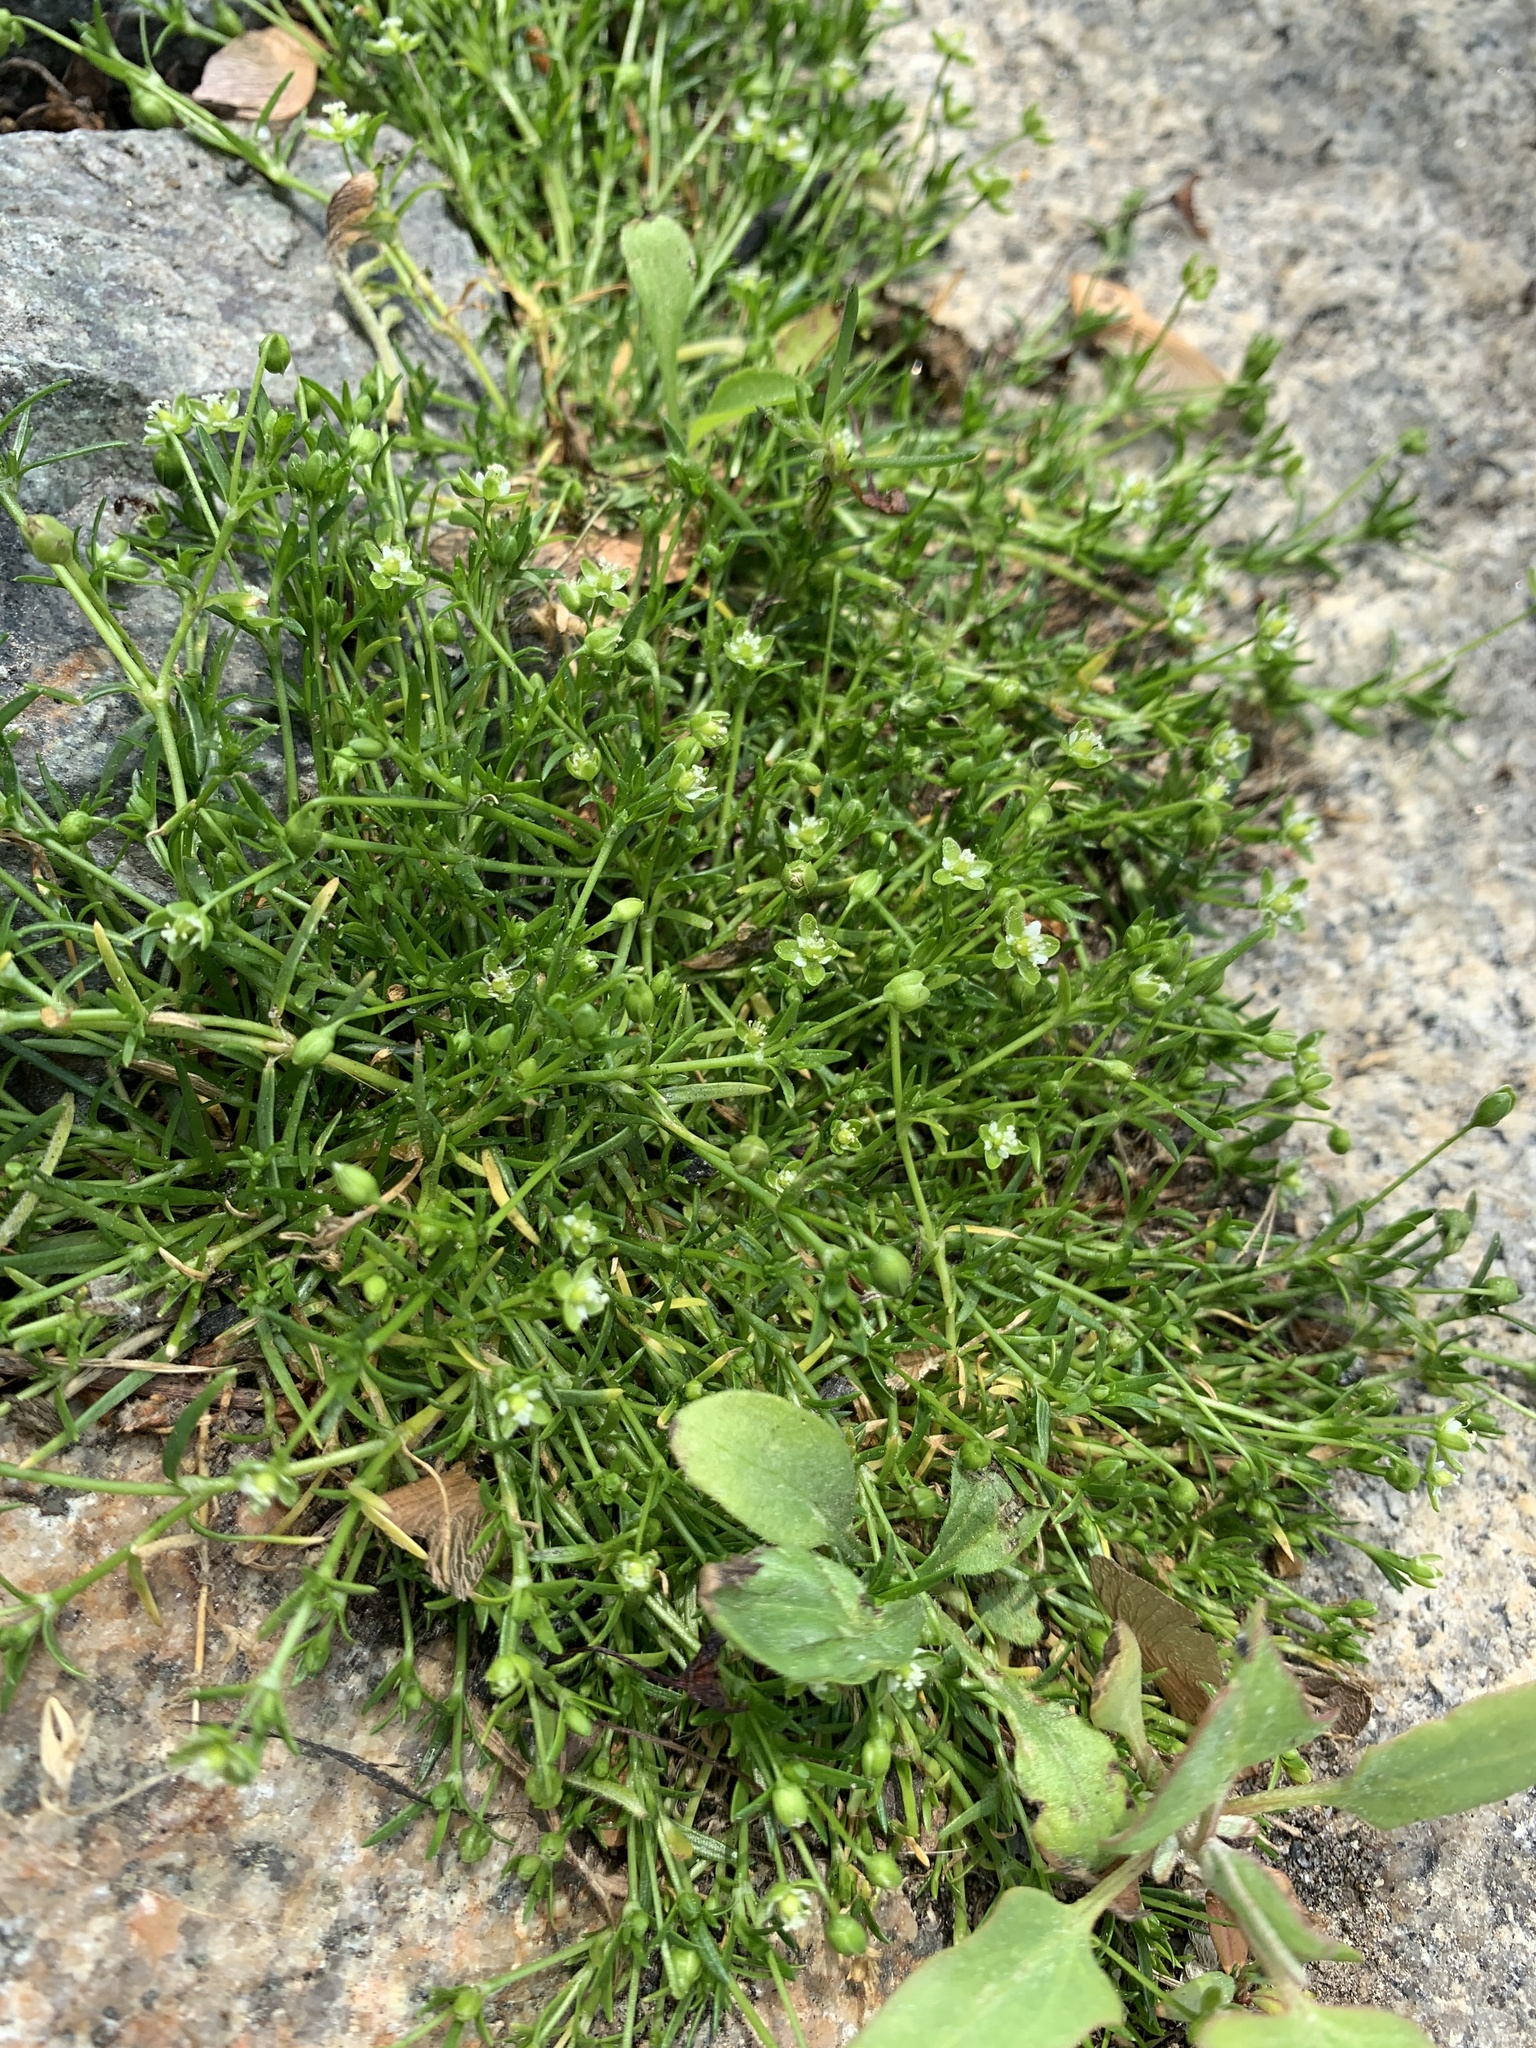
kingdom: Plantae
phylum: Tracheophyta
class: Magnoliopsida
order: Caryophyllales
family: Caryophyllaceae
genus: Sagina
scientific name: Sagina procumbens
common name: Procumbent pearlwort
